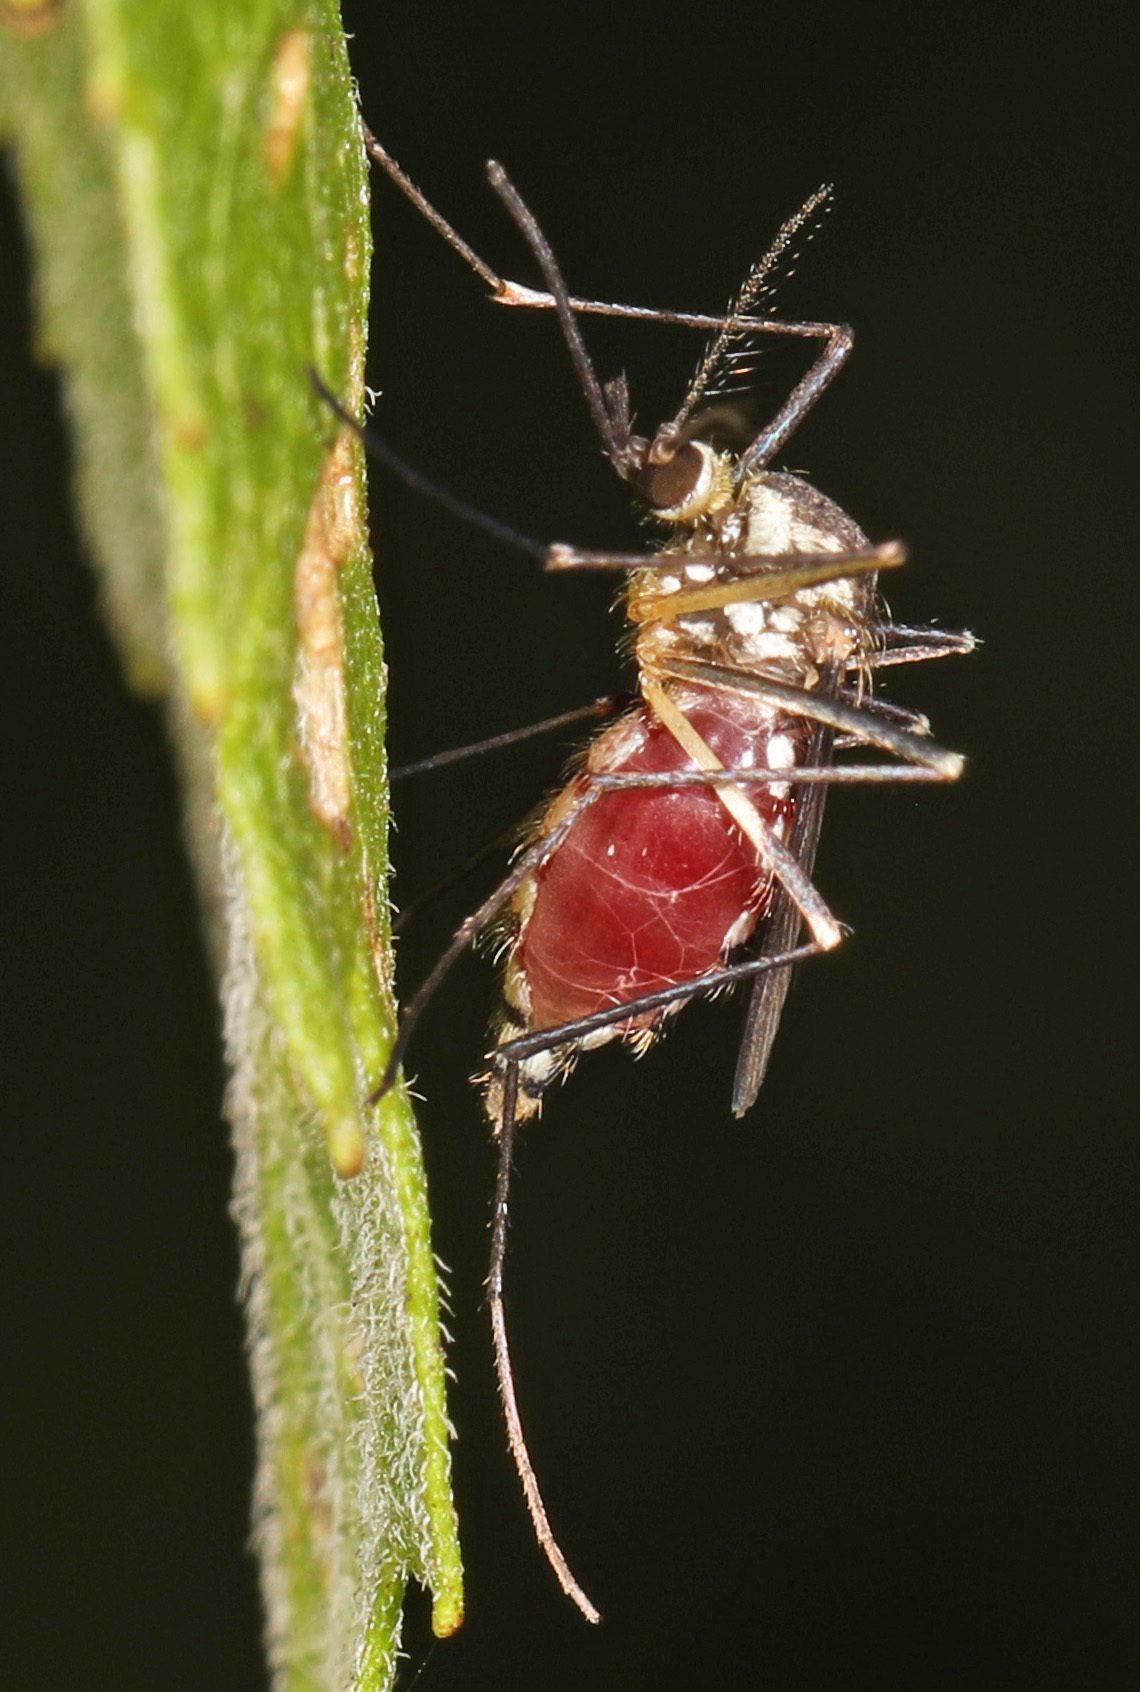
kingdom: Animalia
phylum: Arthropoda
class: Insecta
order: Diptera
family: Culicidae
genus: Aedes
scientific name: Aedes triseriatus
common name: Eastern treehole mosquito
